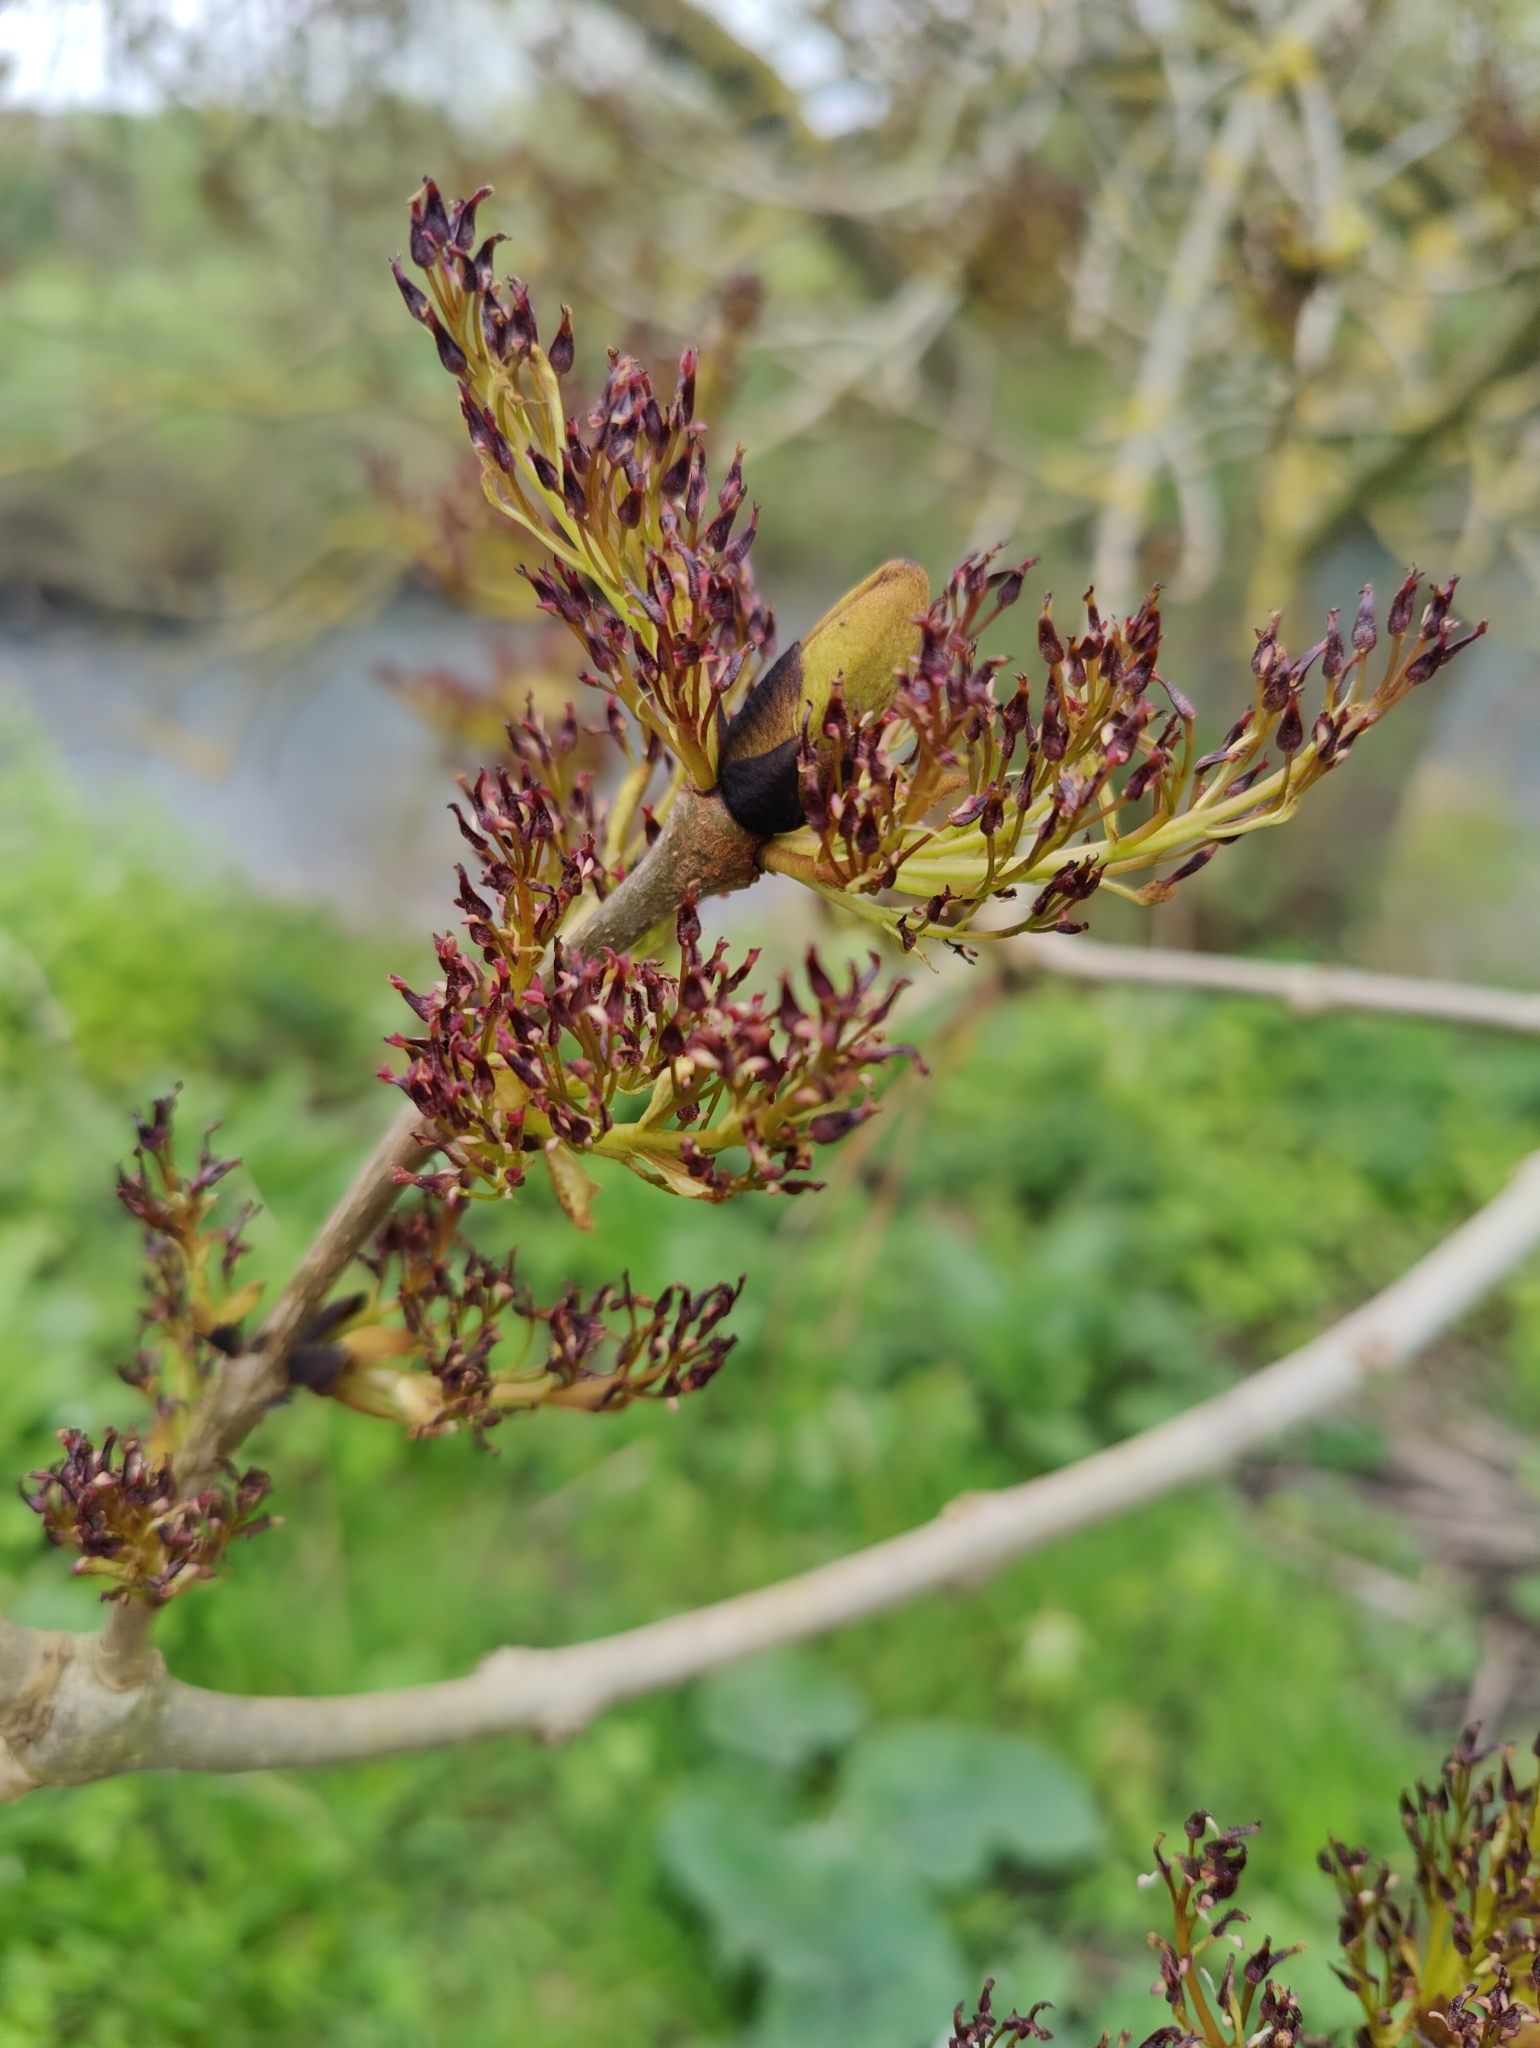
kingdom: Plantae
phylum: Tracheophyta
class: Magnoliopsida
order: Lamiales
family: Oleaceae
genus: Fraxinus
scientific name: Fraxinus excelsior
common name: European ash
